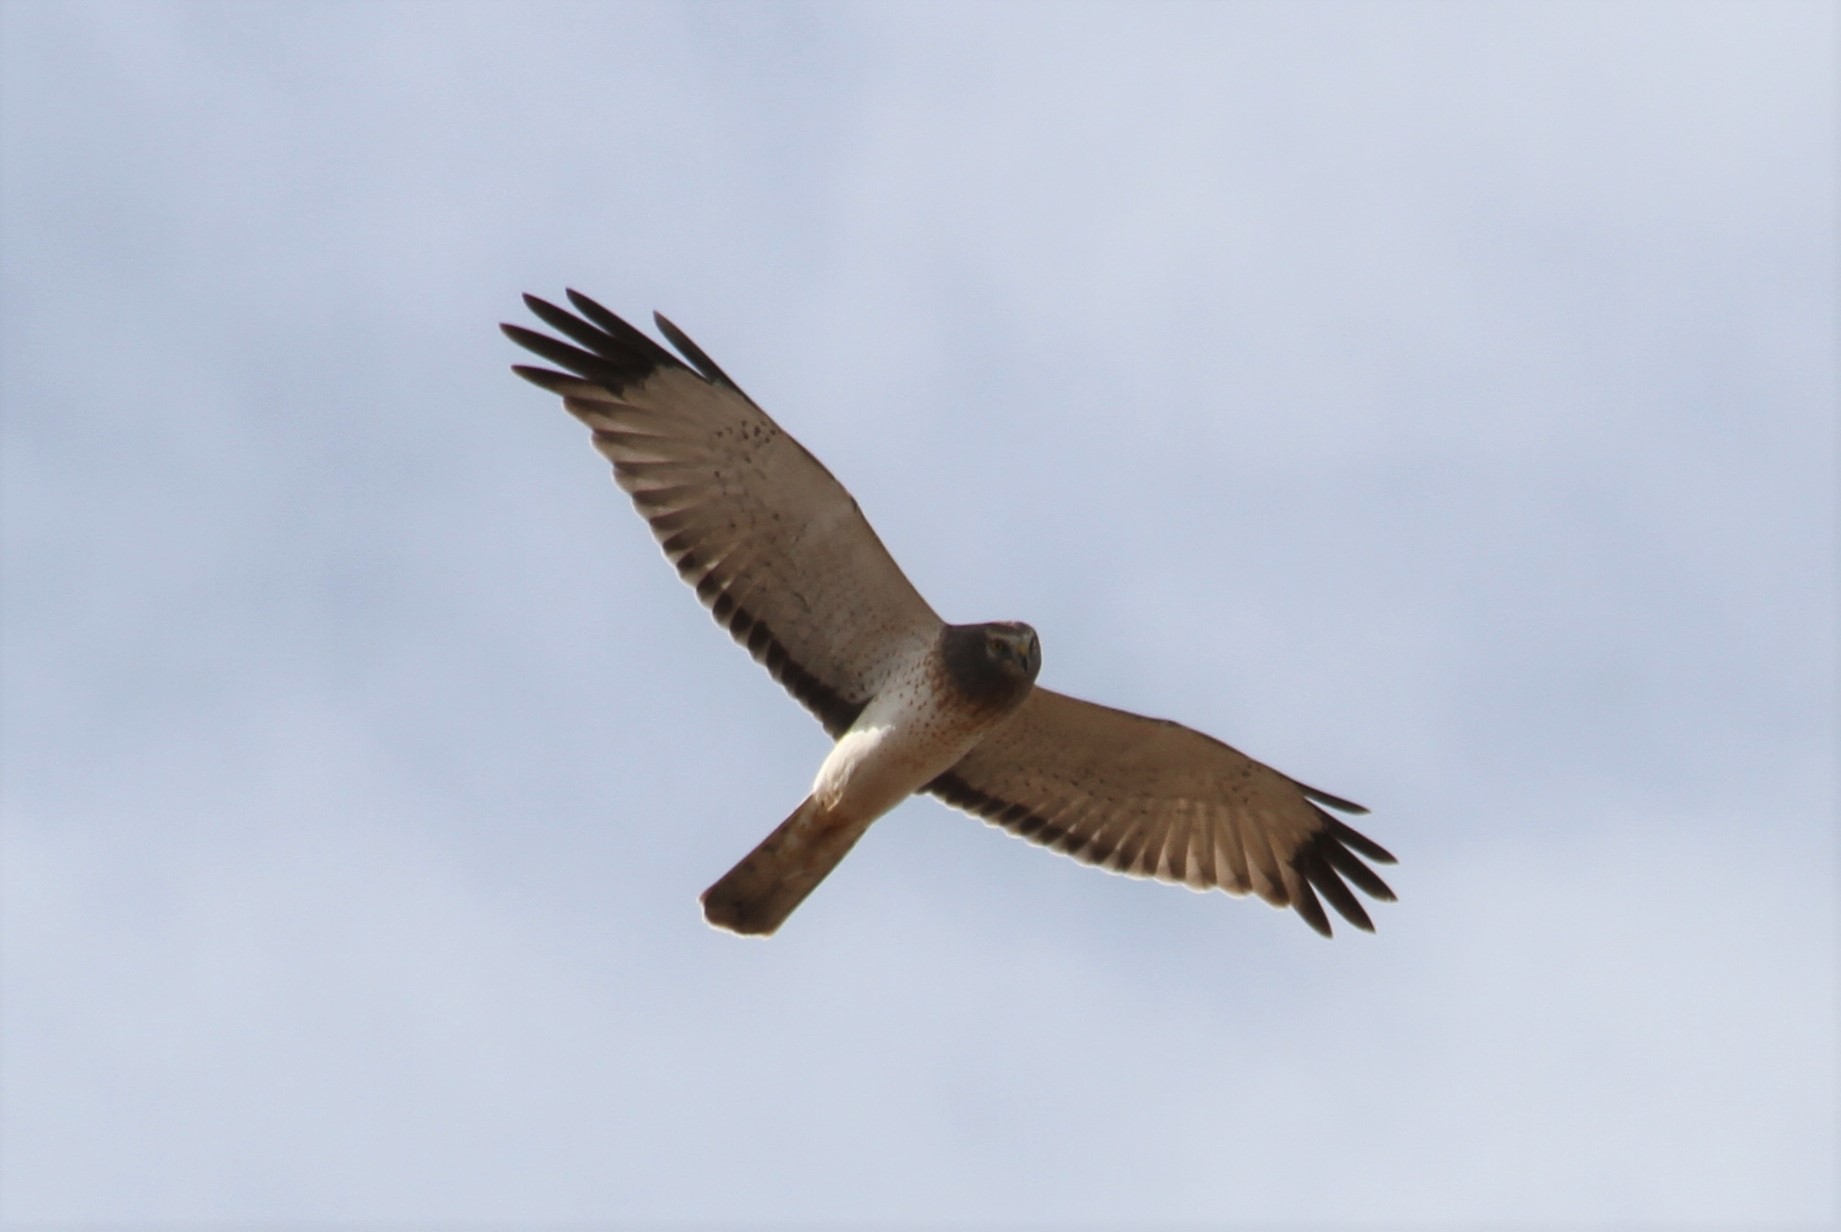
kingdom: Animalia
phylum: Chordata
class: Aves
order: Accipitriformes
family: Accipitridae
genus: Circus
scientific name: Circus cyaneus
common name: Hen harrier
